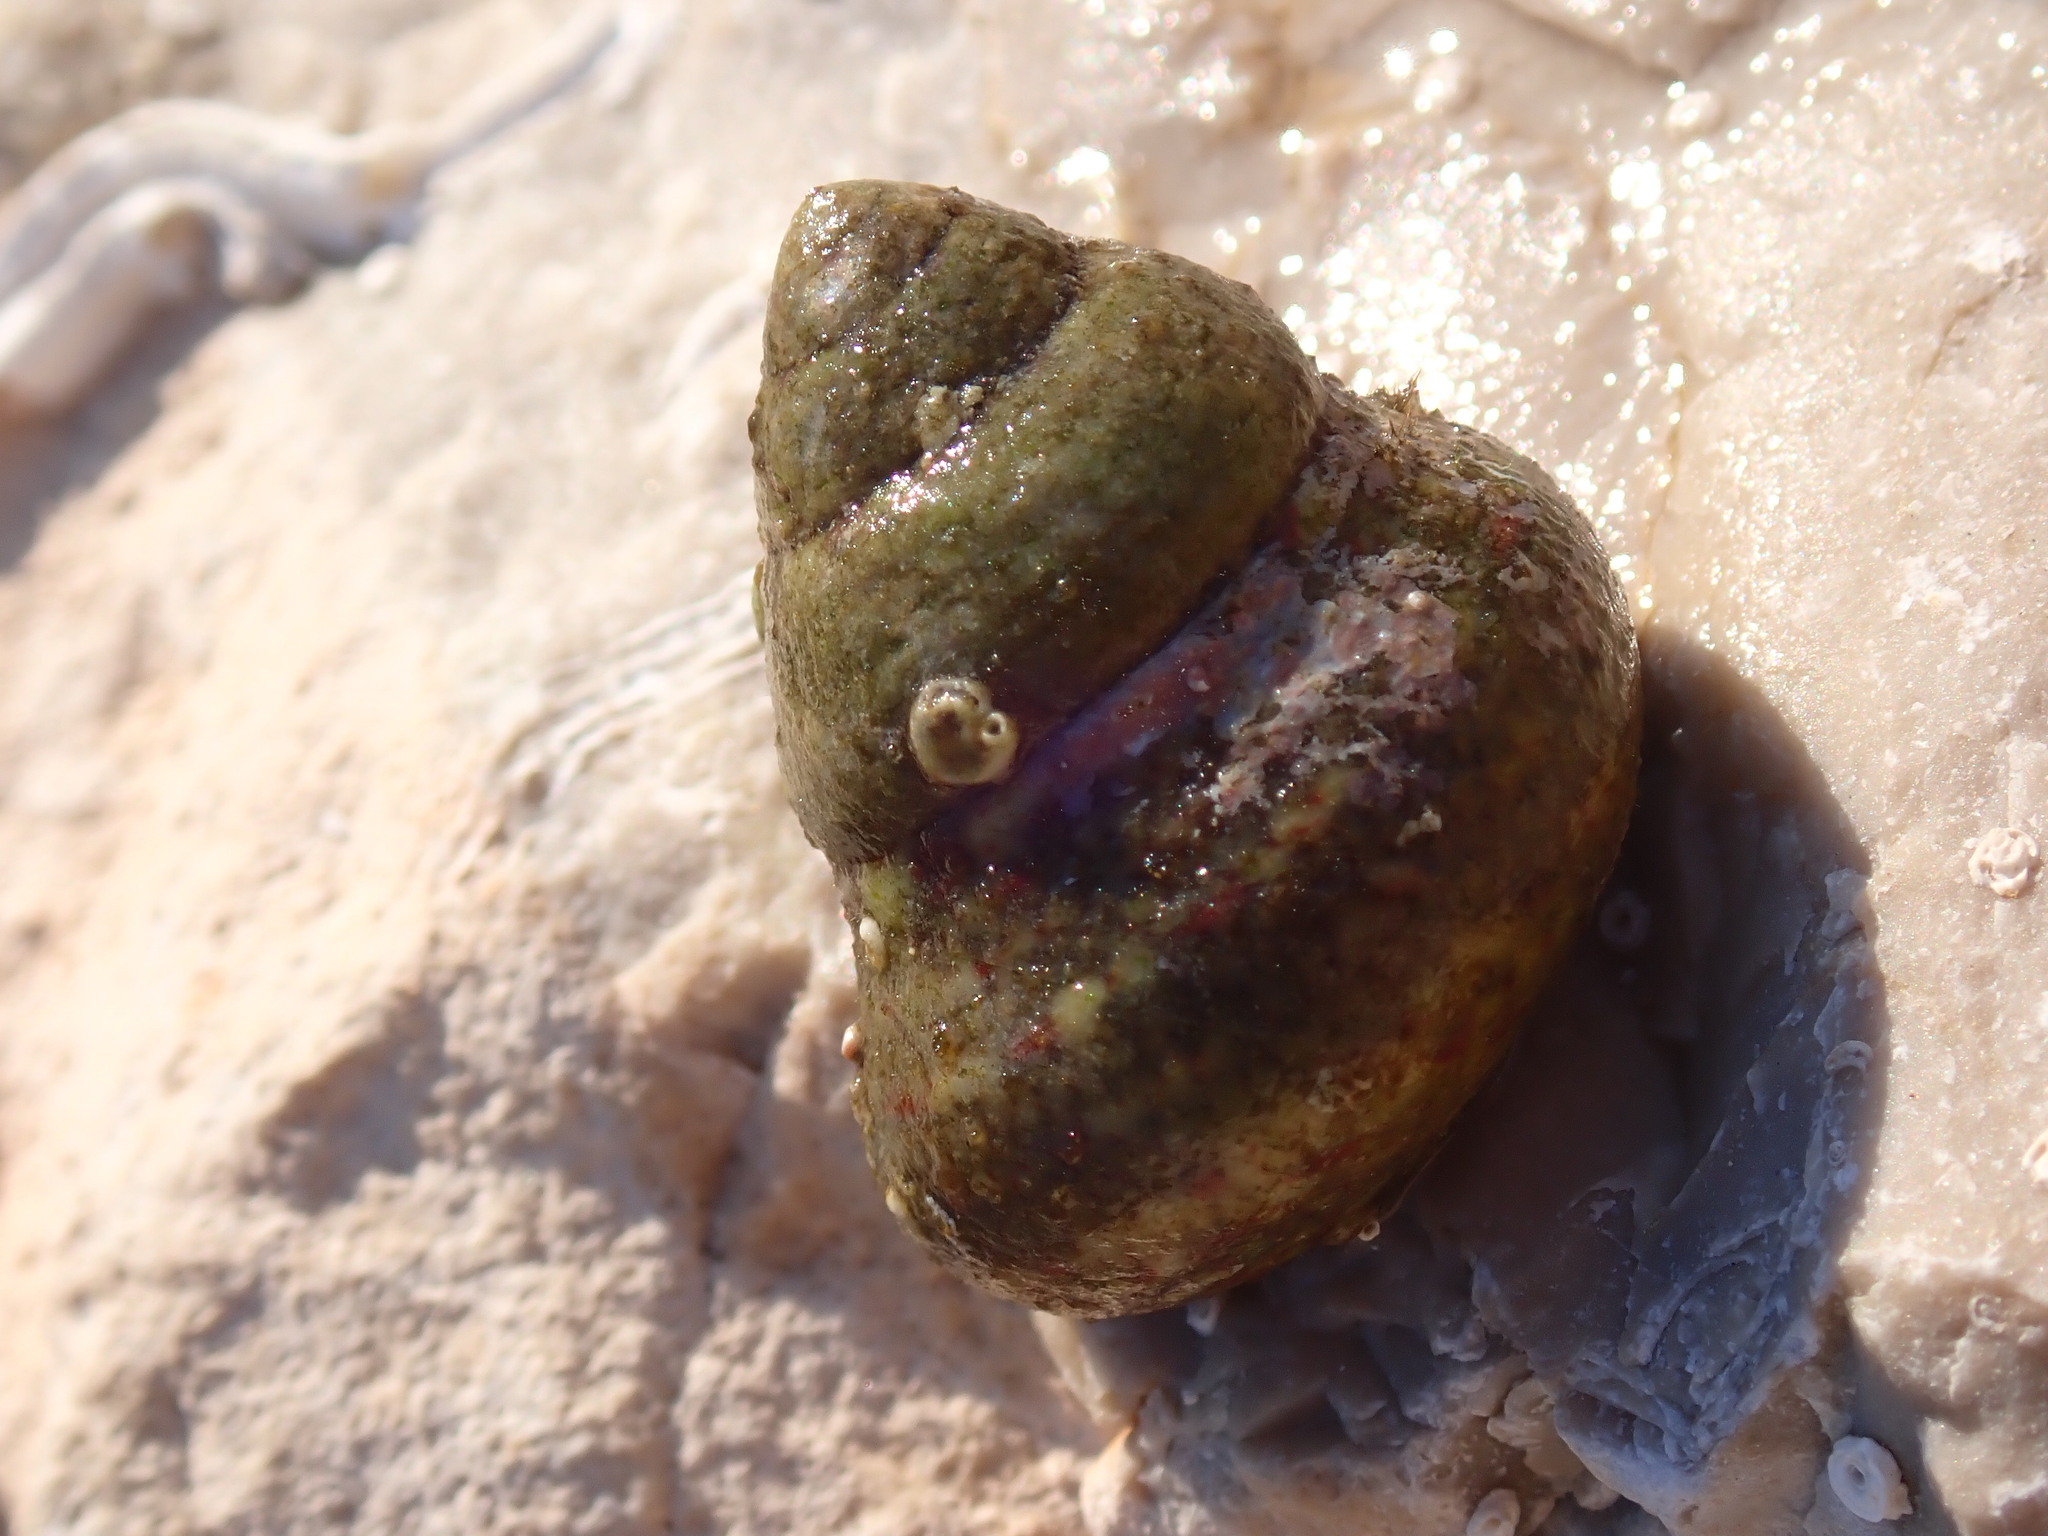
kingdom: Animalia
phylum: Mollusca
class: Gastropoda
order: Trochida
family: Trochidae
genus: Phorcus
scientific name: Phorcus articulatus
